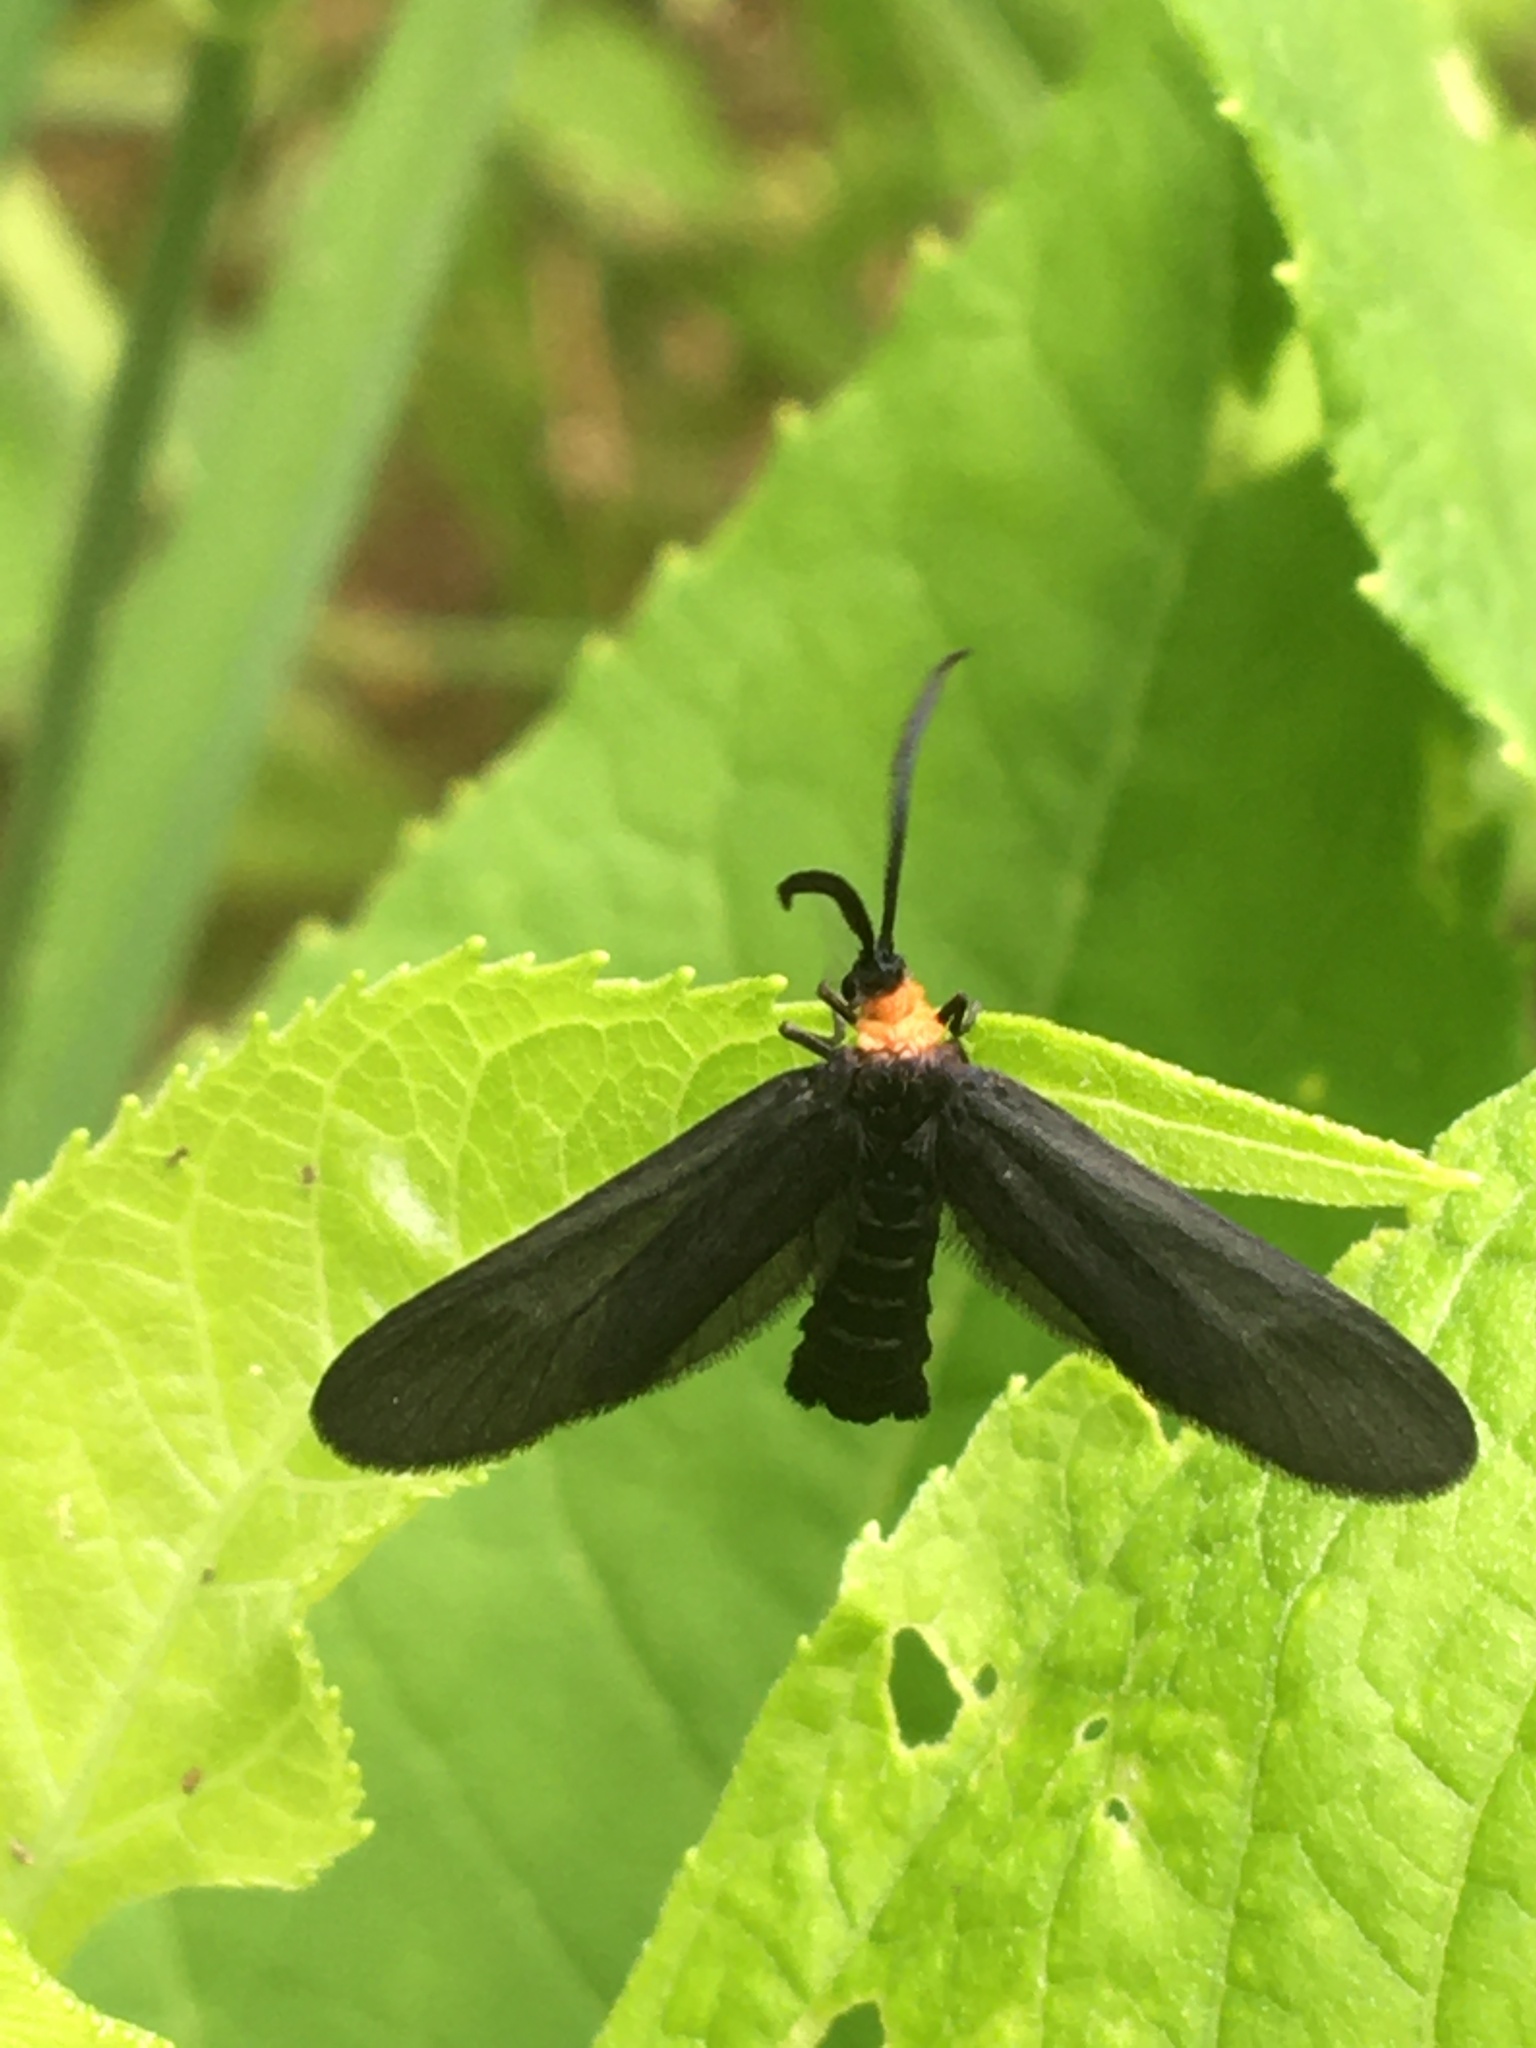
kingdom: Animalia
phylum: Arthropoda
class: Insecta
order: Lepidoptera
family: Zygaenidae
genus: Harrisina
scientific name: Harrisina americana
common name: Grapeleaf skeletonizer moth
